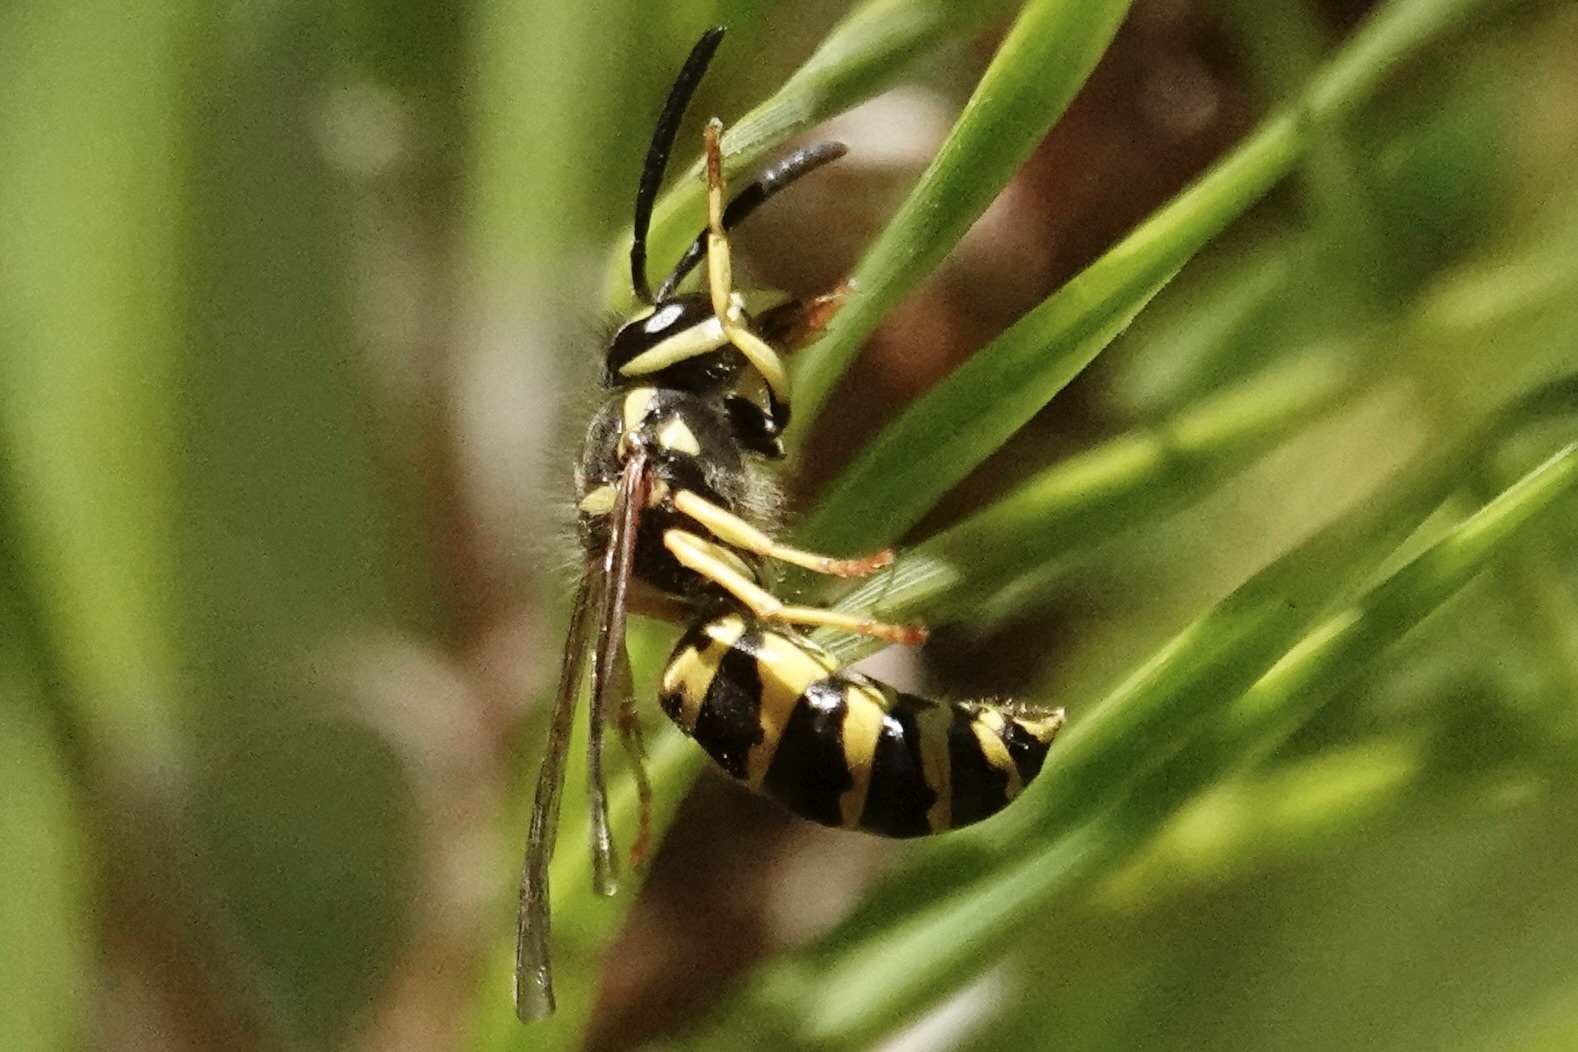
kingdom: Animalia
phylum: Arthropoda
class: Insecta
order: Hymenoptera
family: Vespidae
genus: Vespula
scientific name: Vespula maculifrons
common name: Eastern yellowjacket
